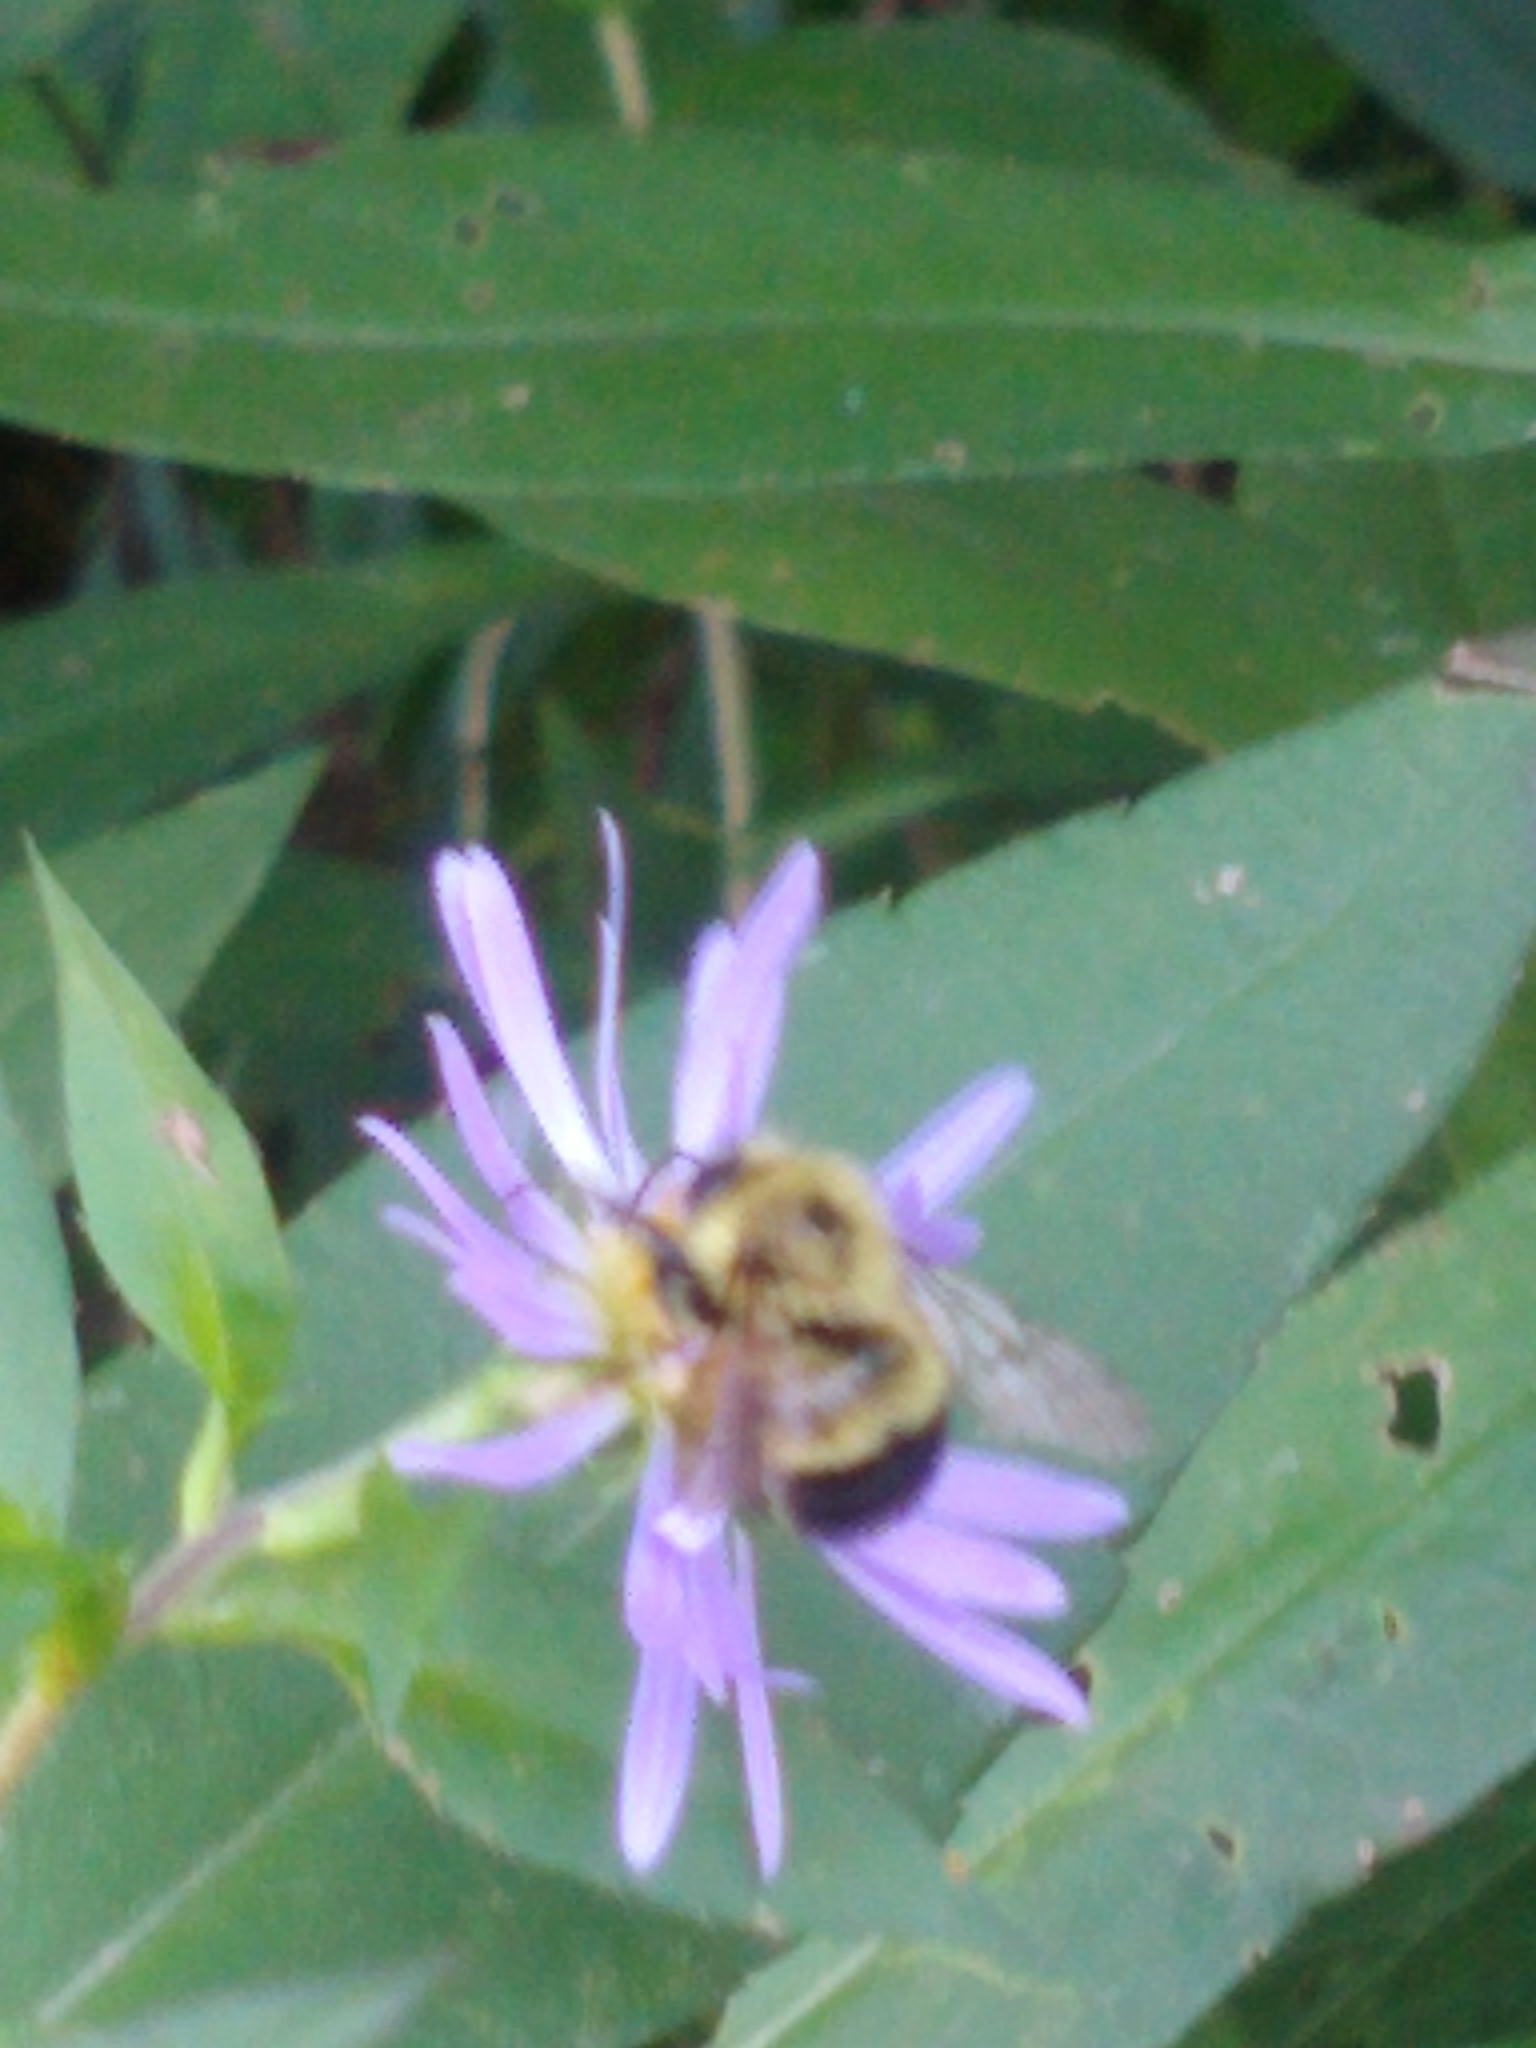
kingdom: Animalia
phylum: Arthropoda
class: Insecta
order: Hymenoptera
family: Apidae
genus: Pyrobombus
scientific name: Pyrobombus
